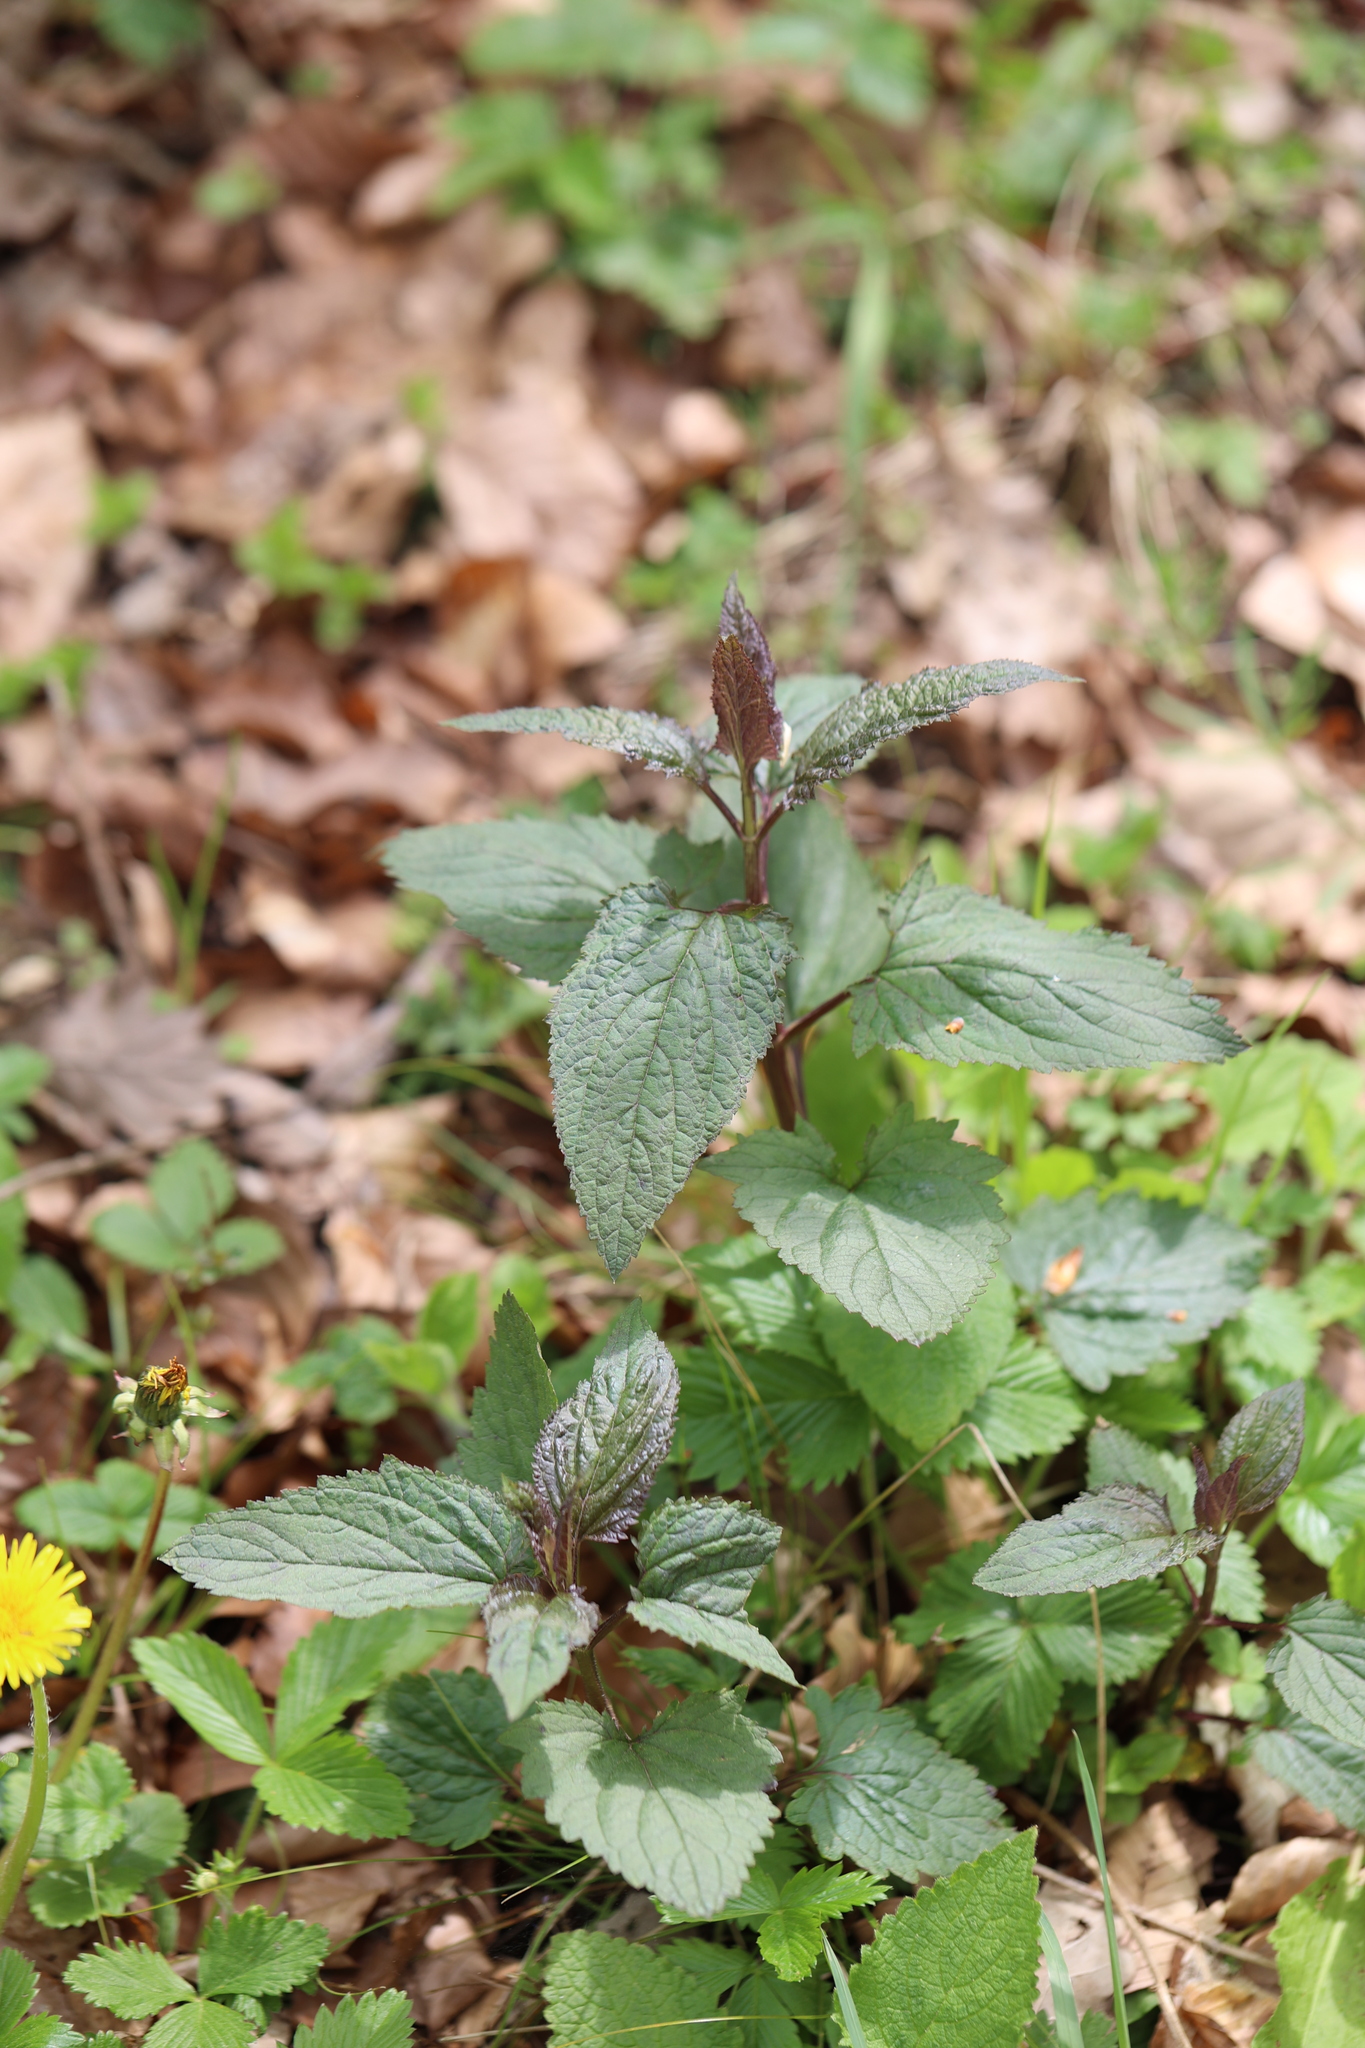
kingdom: Plantae
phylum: Tracheophyta
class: Magnoliopsida
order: Lamiales
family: Scrophulariaceae
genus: Scrophularia
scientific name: Scrophularia nodosa
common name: Common figwort
